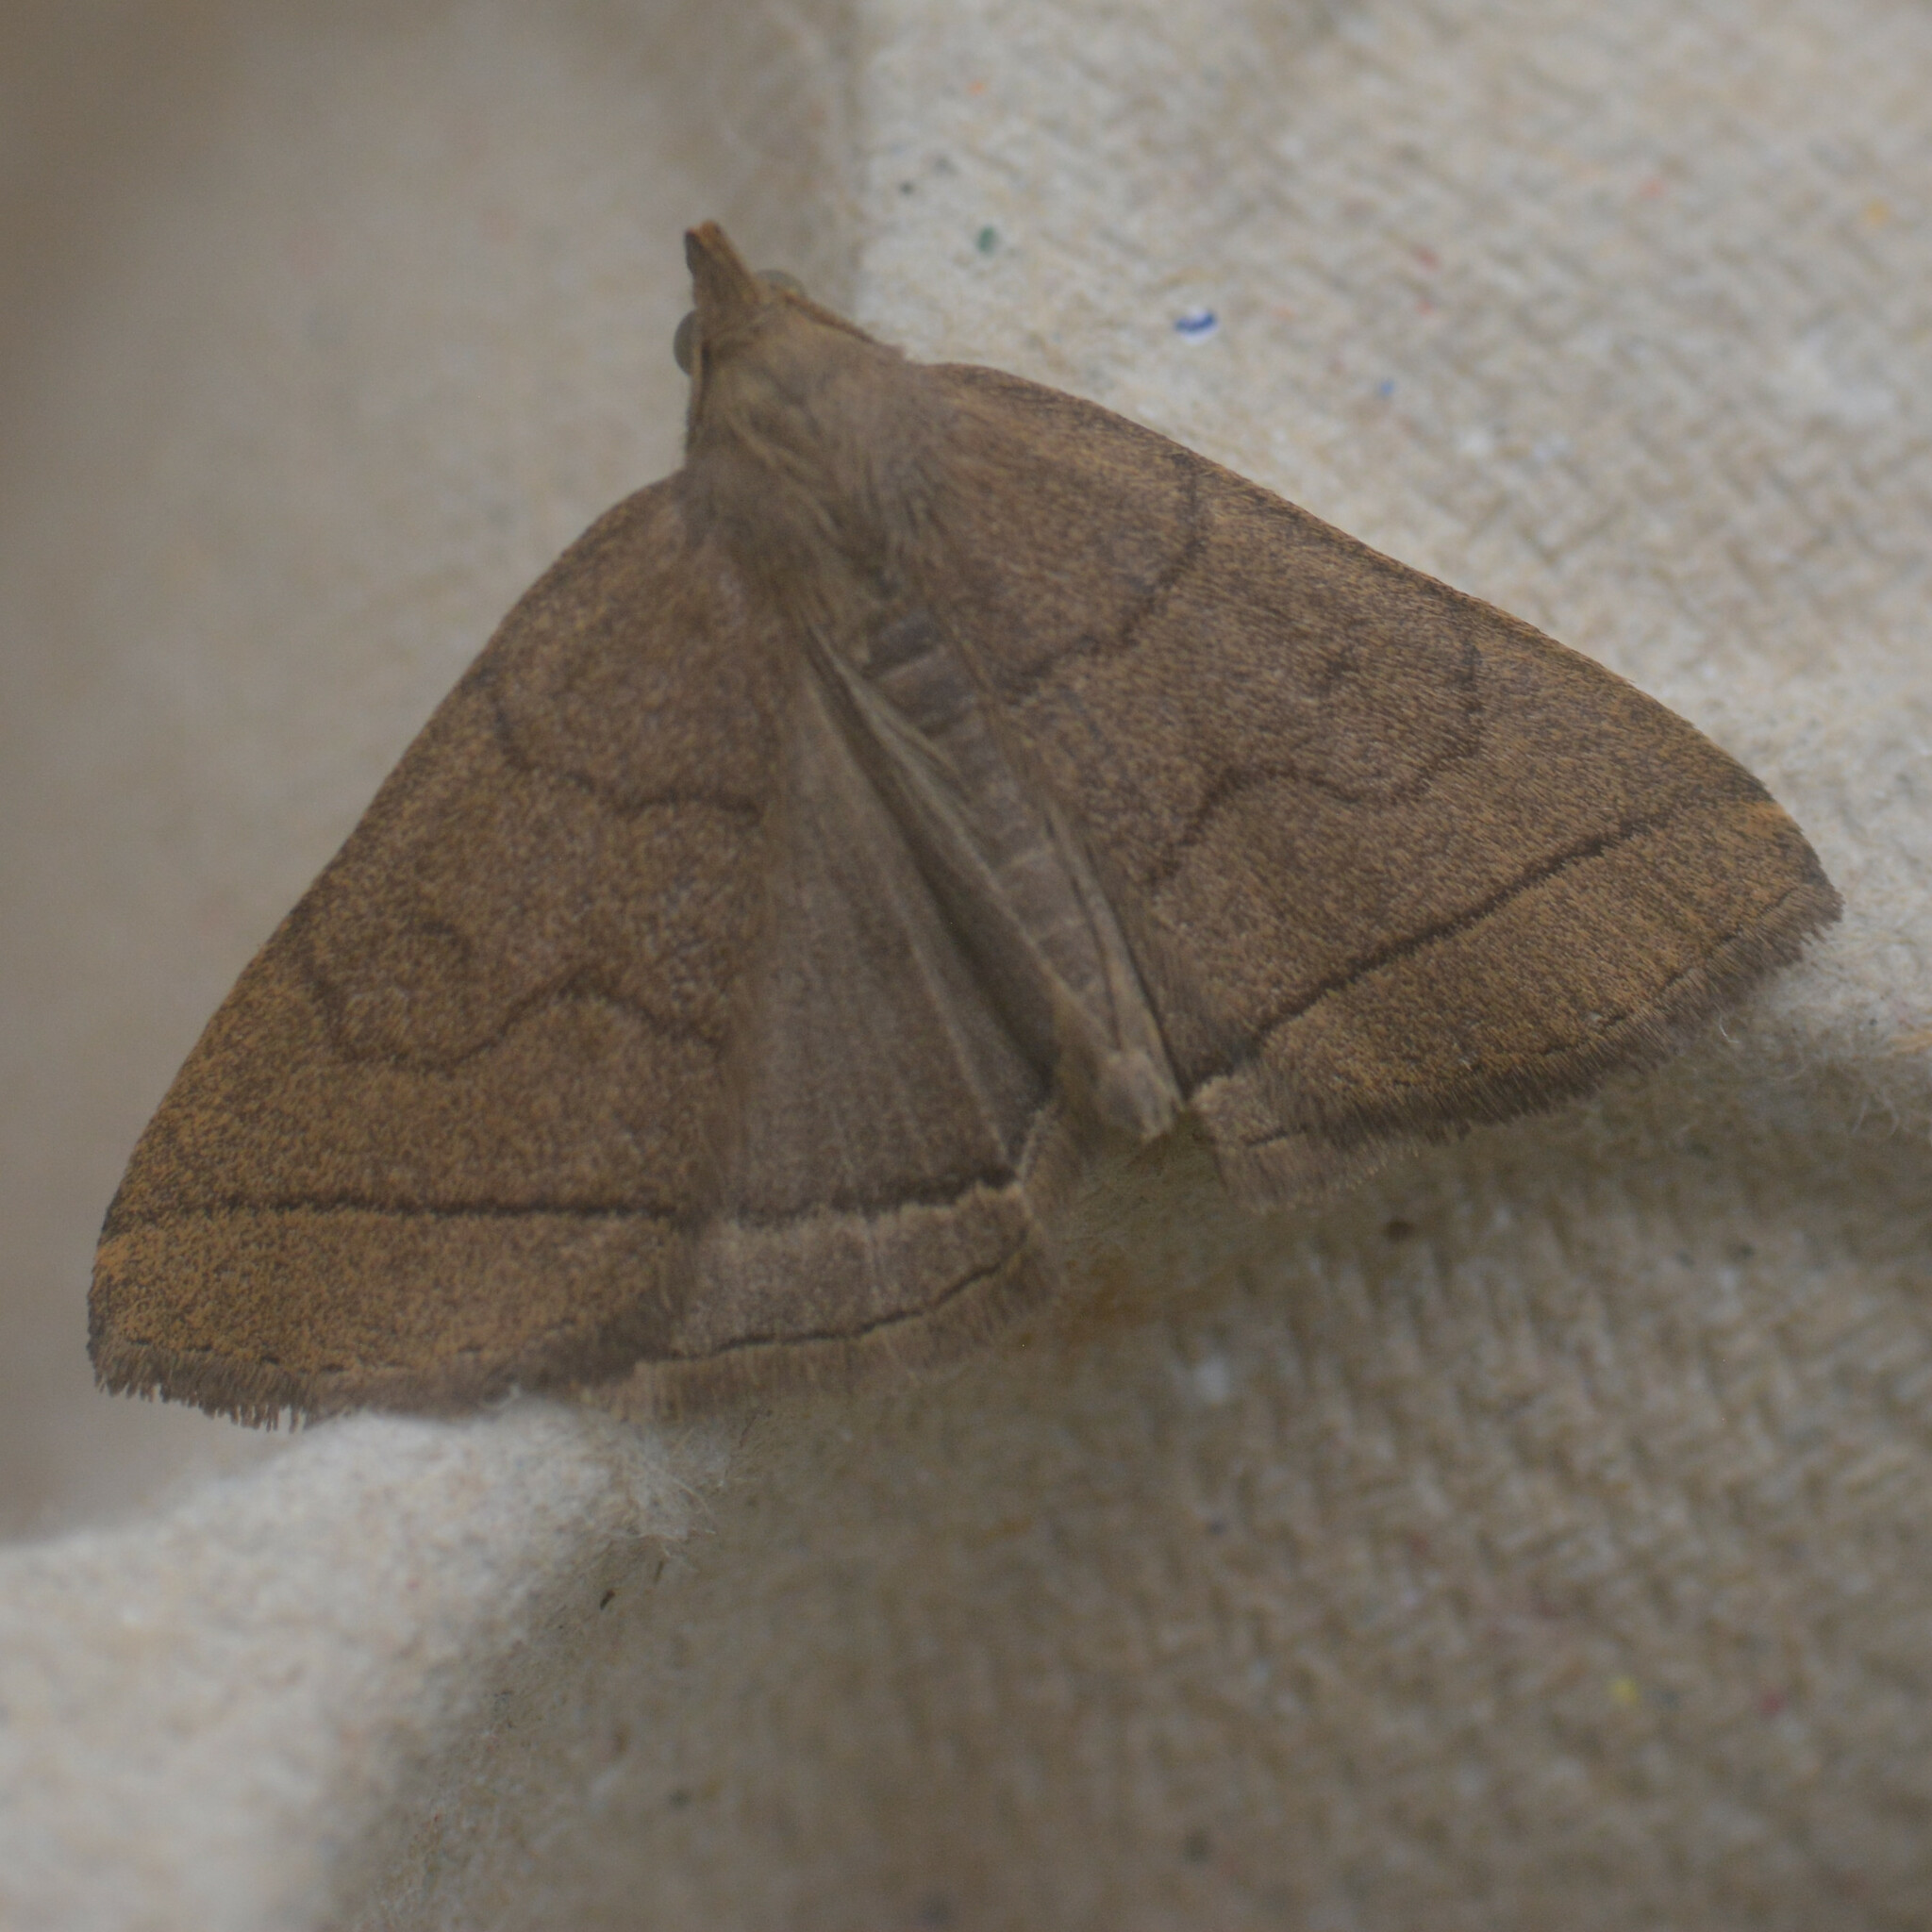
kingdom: Animalia
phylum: Arthropoda
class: Insecta
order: Lepidoptera
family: Erebidae
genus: Herminia
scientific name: Herminia tarsipennalis
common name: Fan-foot
